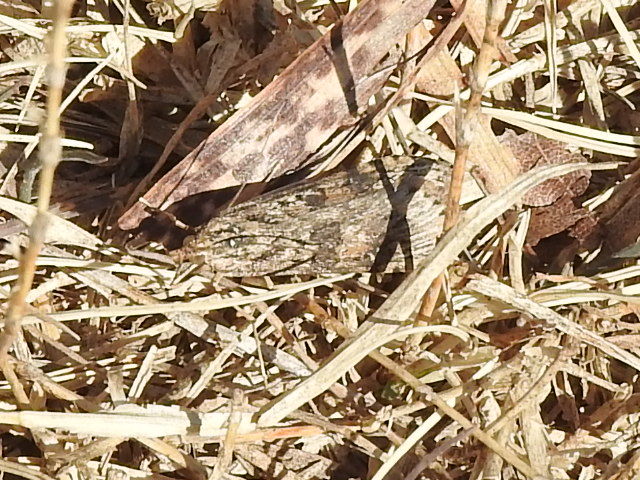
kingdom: Animalia
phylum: Arthropoda
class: Insecta
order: Lepidoptera
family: Crambidae
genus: Nomophila
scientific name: Nomophila nearctica
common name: American rush veneer
